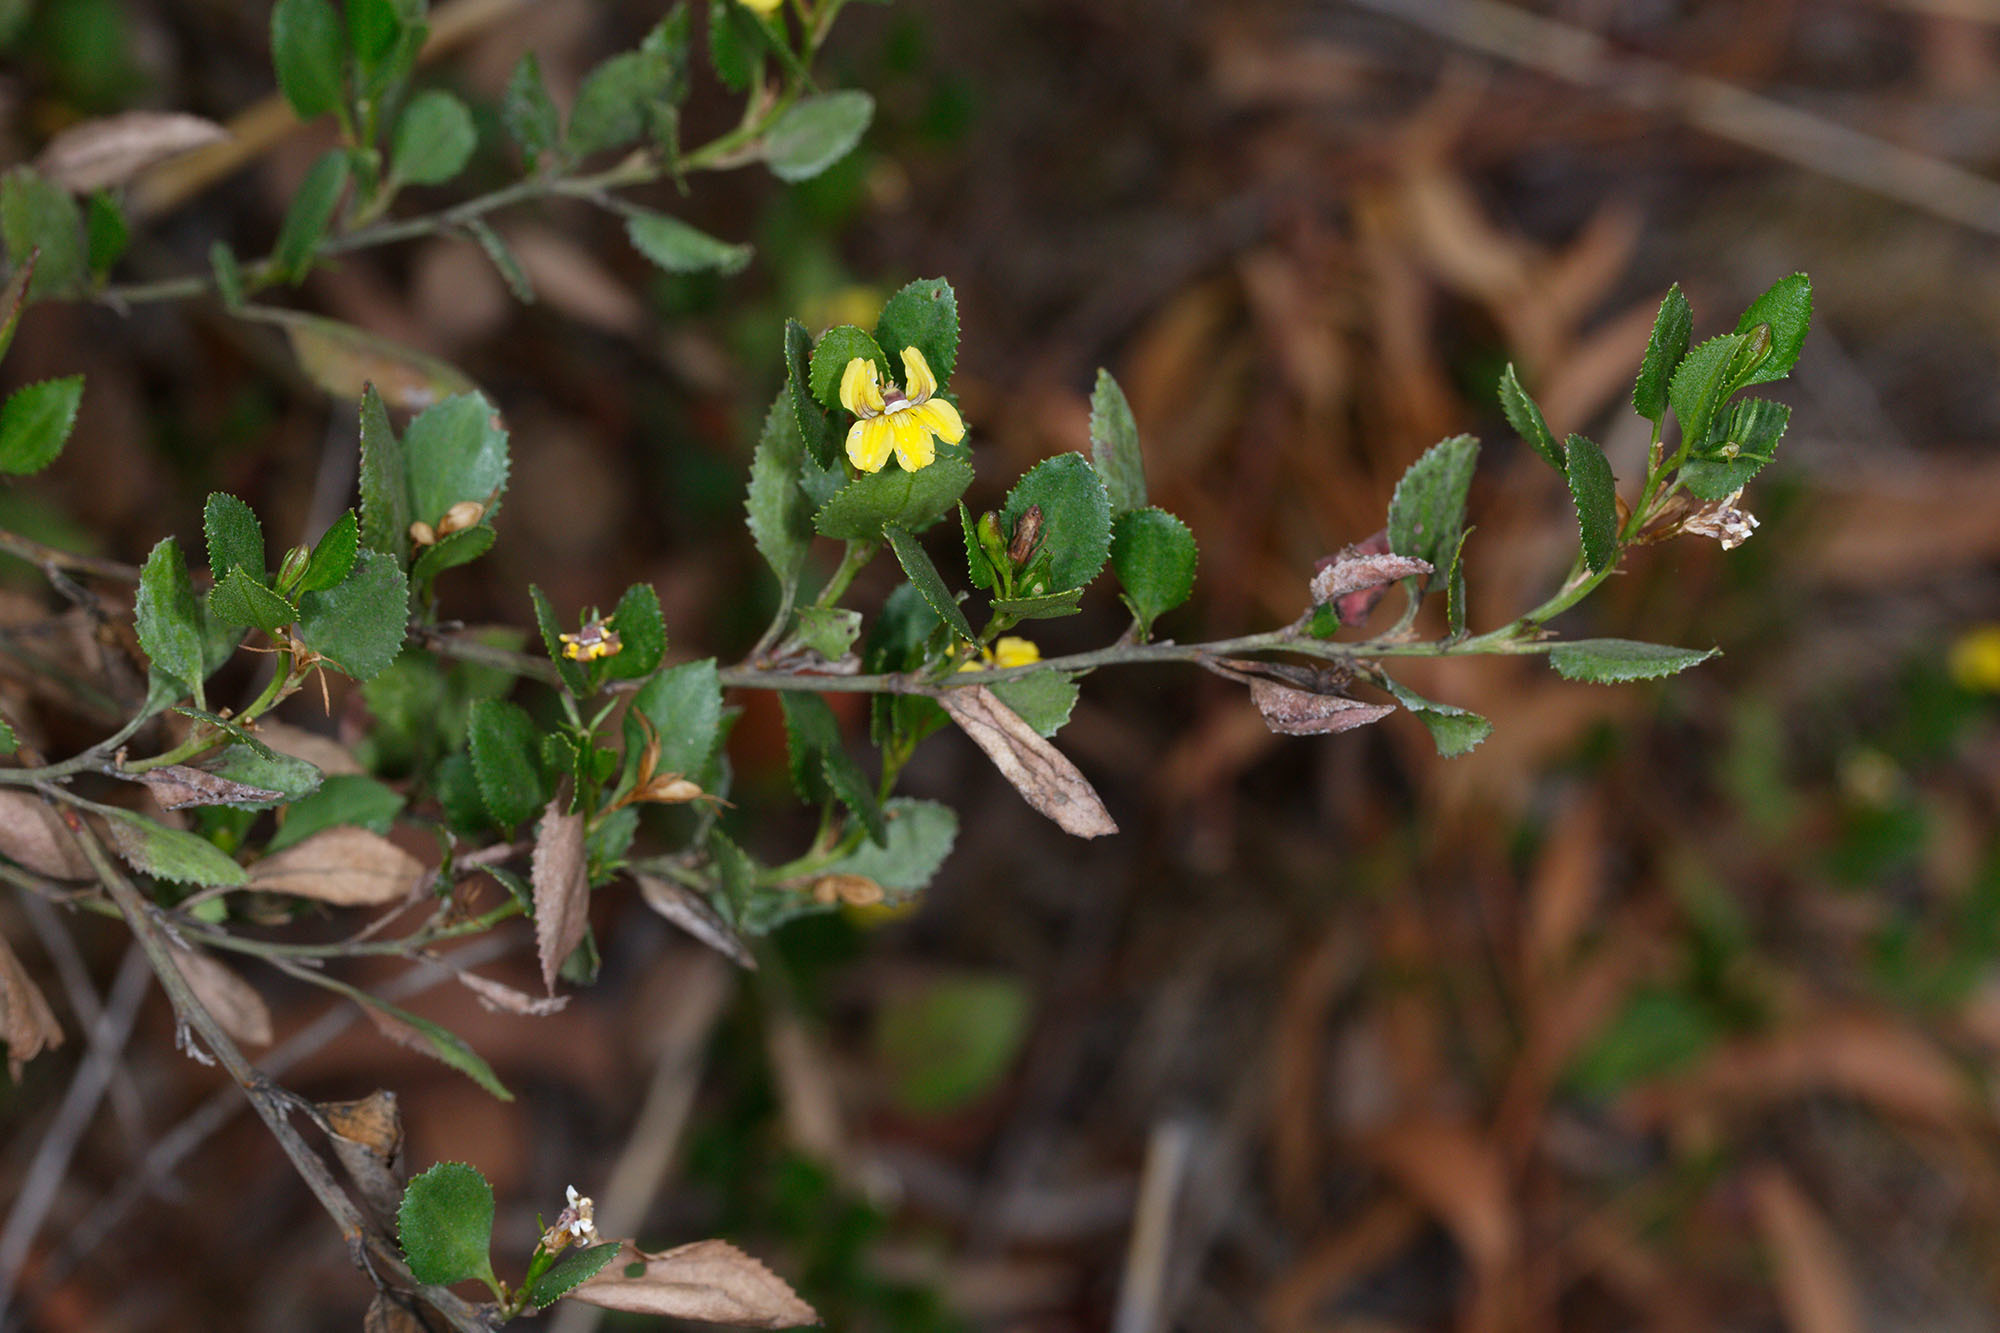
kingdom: Plantae
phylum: Tracheophyta
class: Magnoliopsida
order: Asterales
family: Goodeniaceae
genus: Goodenia
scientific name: Goodenia ovata
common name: Hop goodenia
